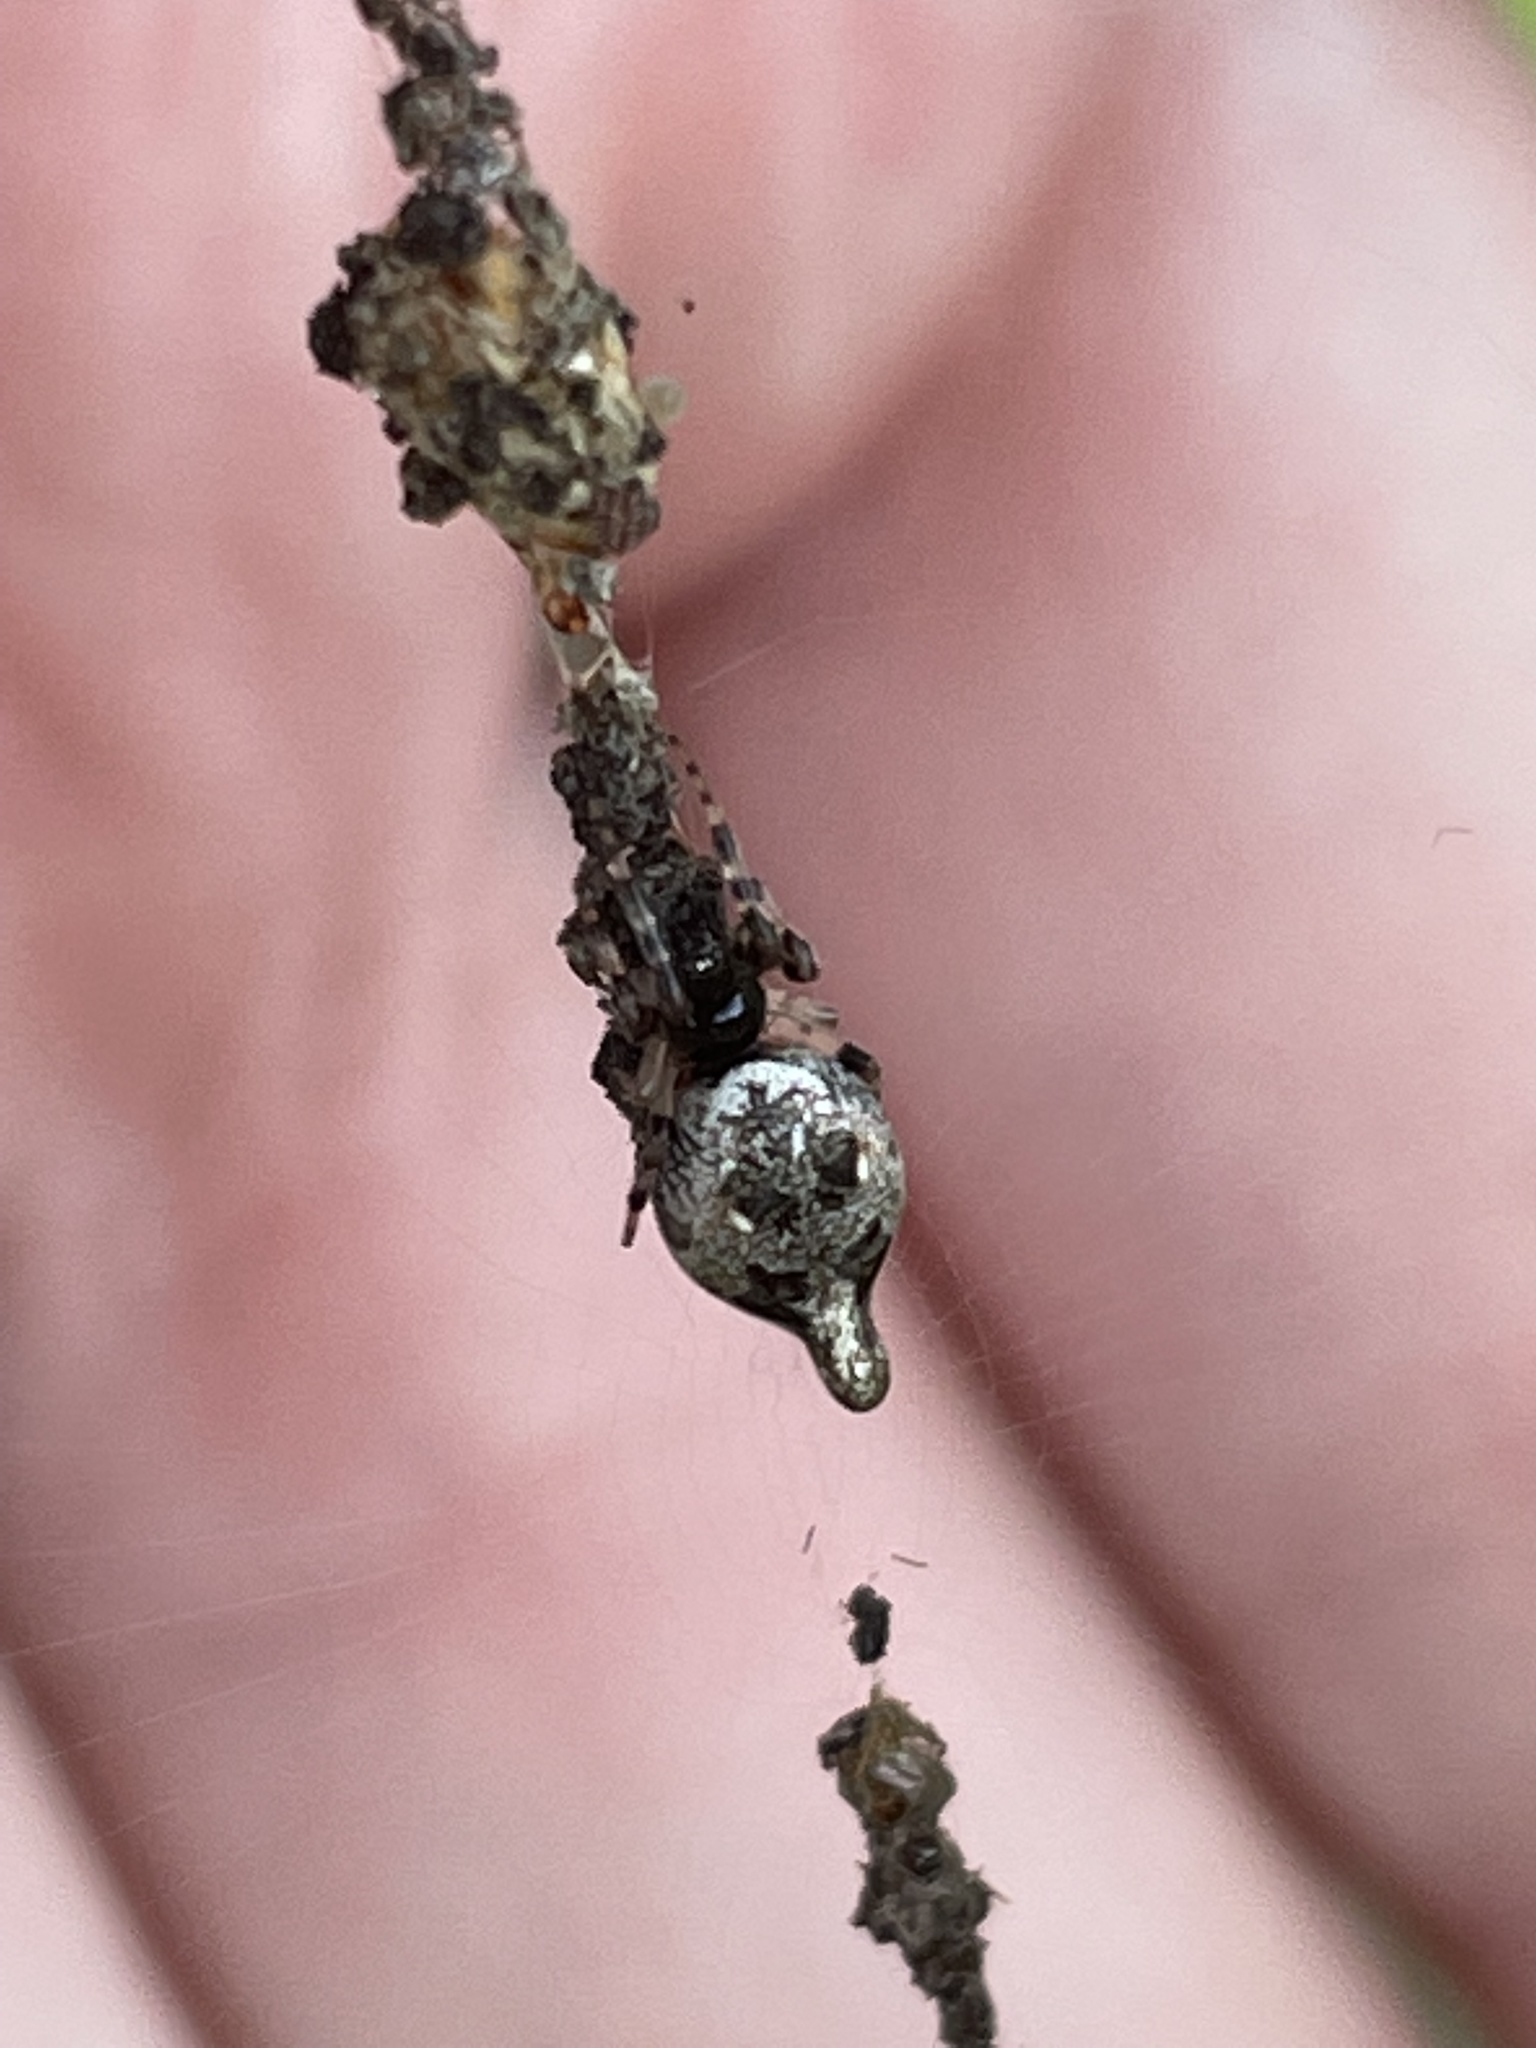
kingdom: Animalia
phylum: Arthropoda
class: Arachnida
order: Araneae
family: Araneidae
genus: Cyclosa
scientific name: Cyclosa turbinata
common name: Orb weavers
